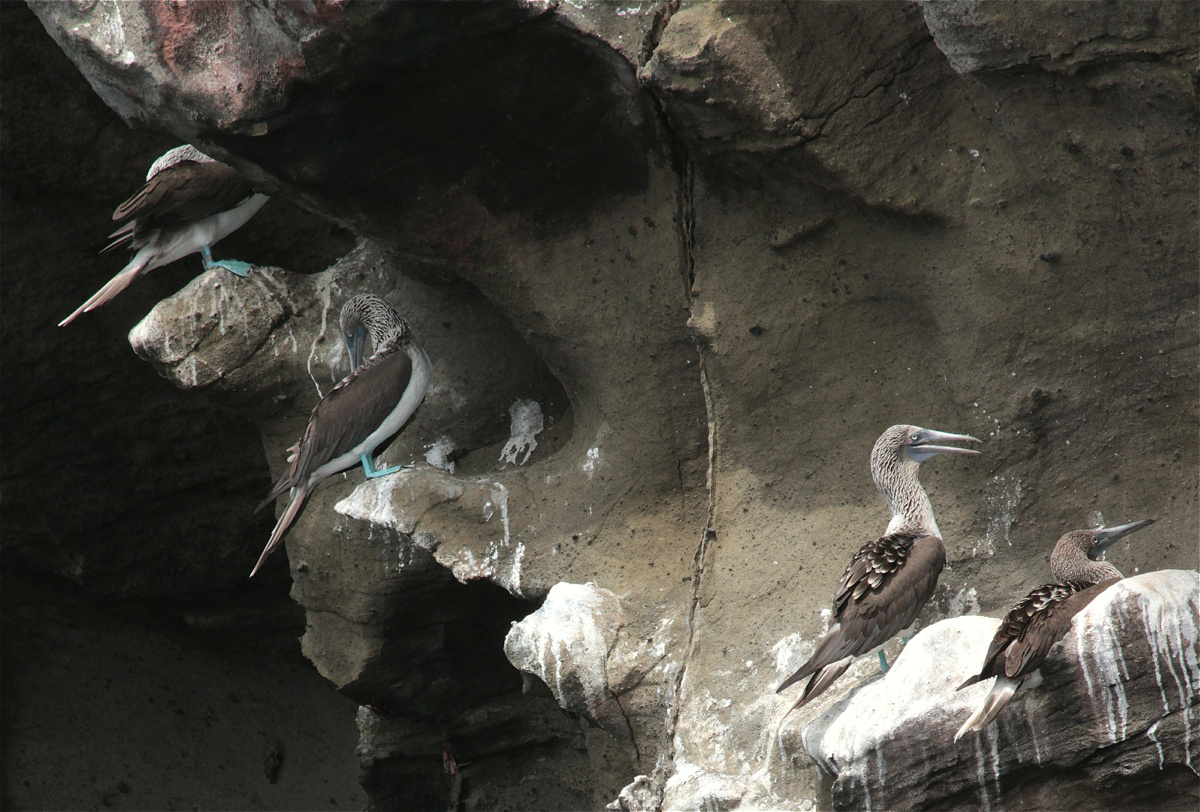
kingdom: Animalia
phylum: Chordata
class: Aves
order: Suliformes
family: Sulidae
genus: Sula
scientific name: Sula nebouxii
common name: Blue-footed booby
